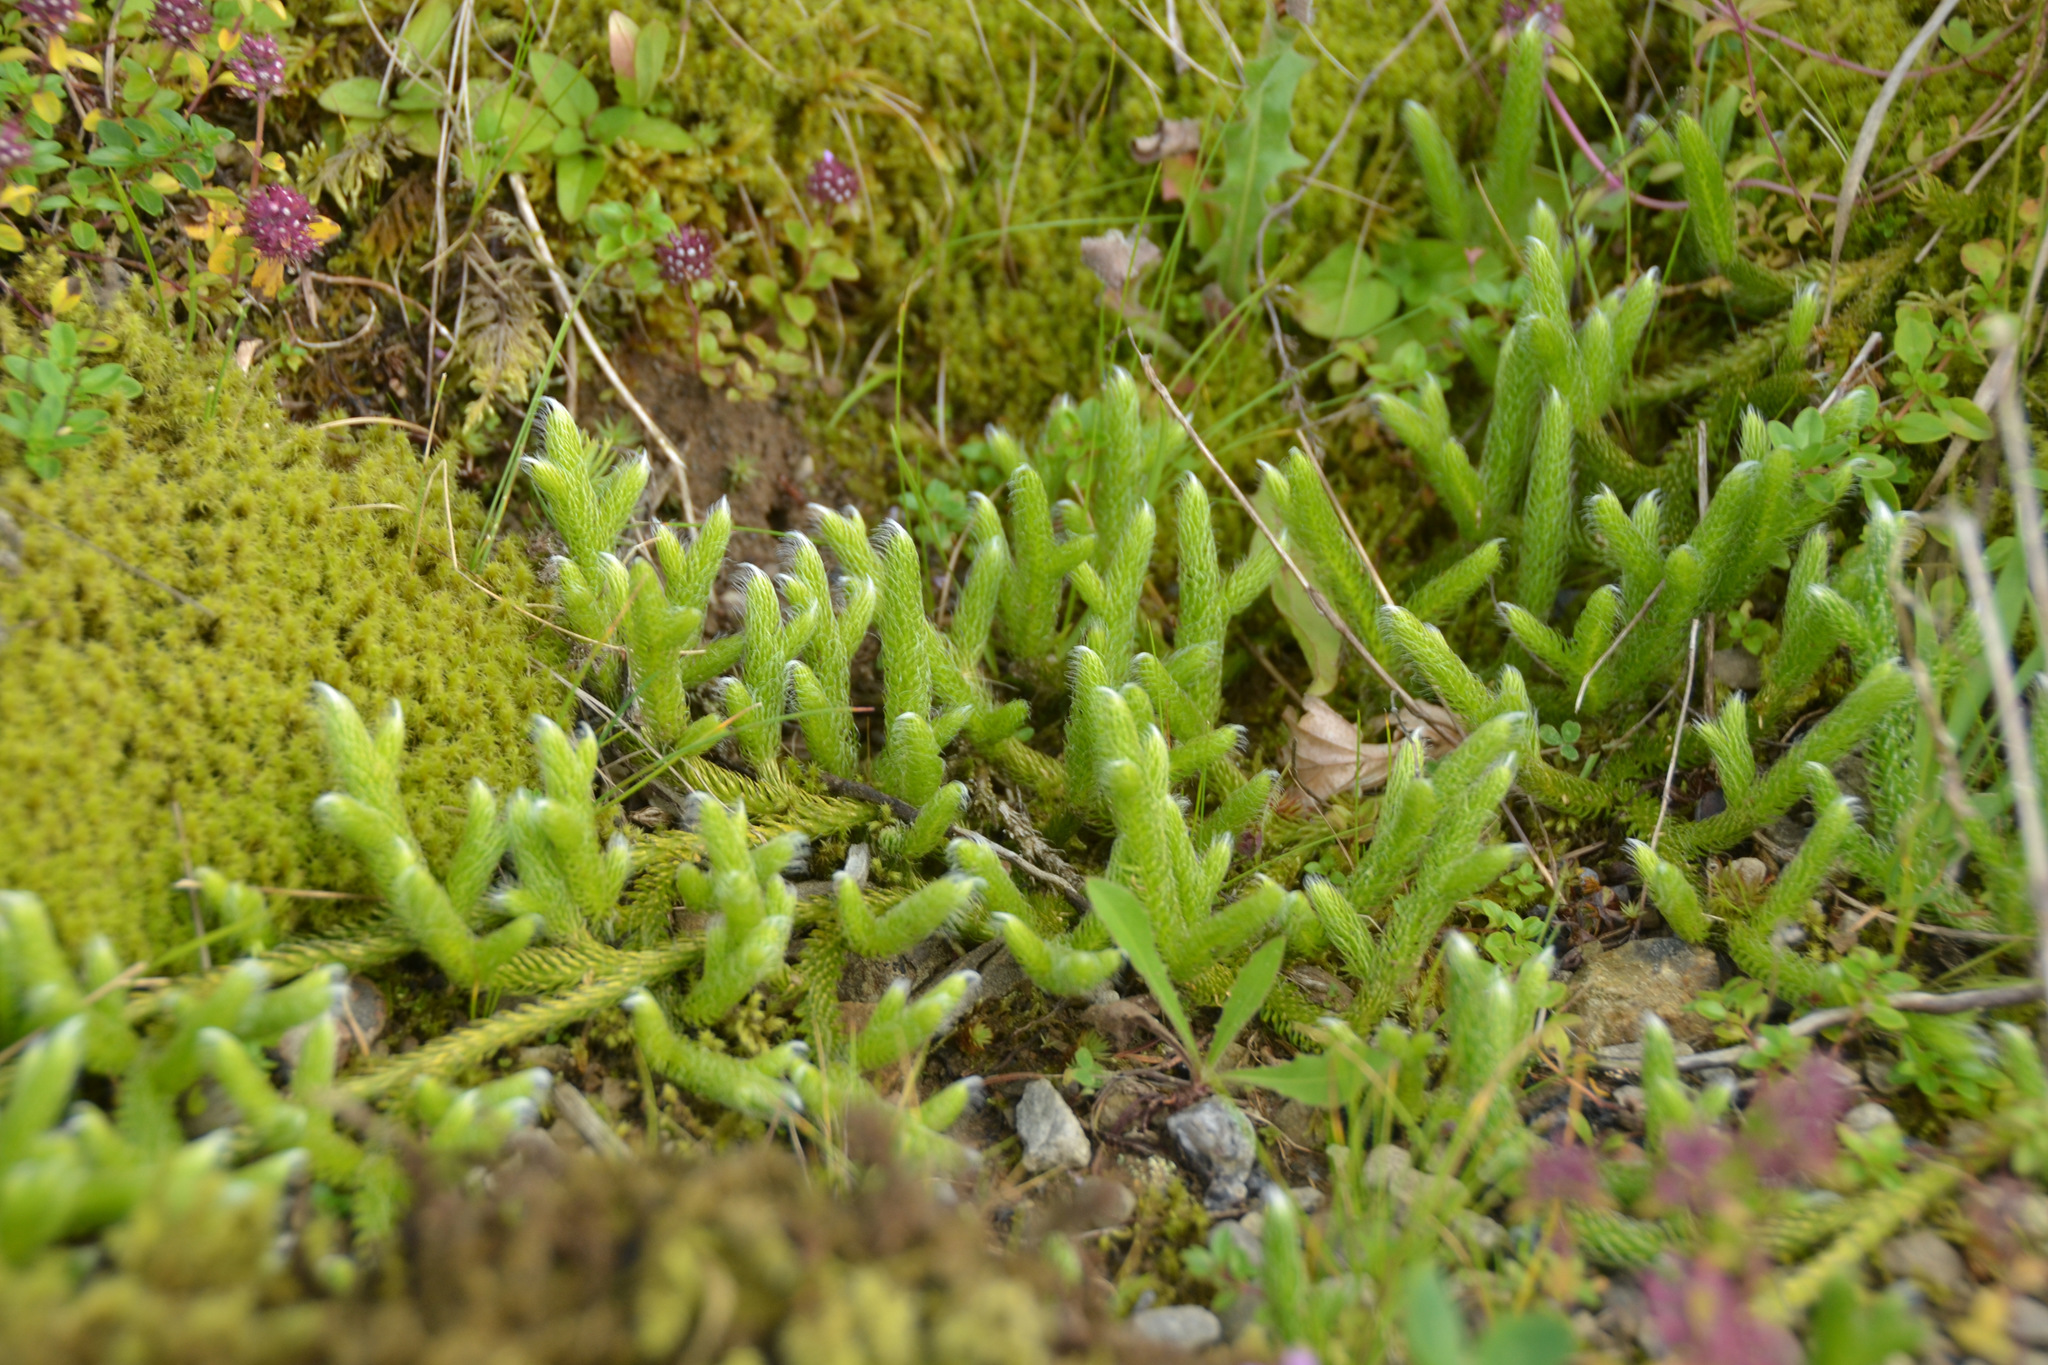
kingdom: Plantae
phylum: Tracheophyta
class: Lycopodiopsida
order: Lycopodiales
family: Lycopodiaceae
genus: Lycopodium
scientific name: Lycopodium clavatum
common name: Stag's-horn clubmoss
